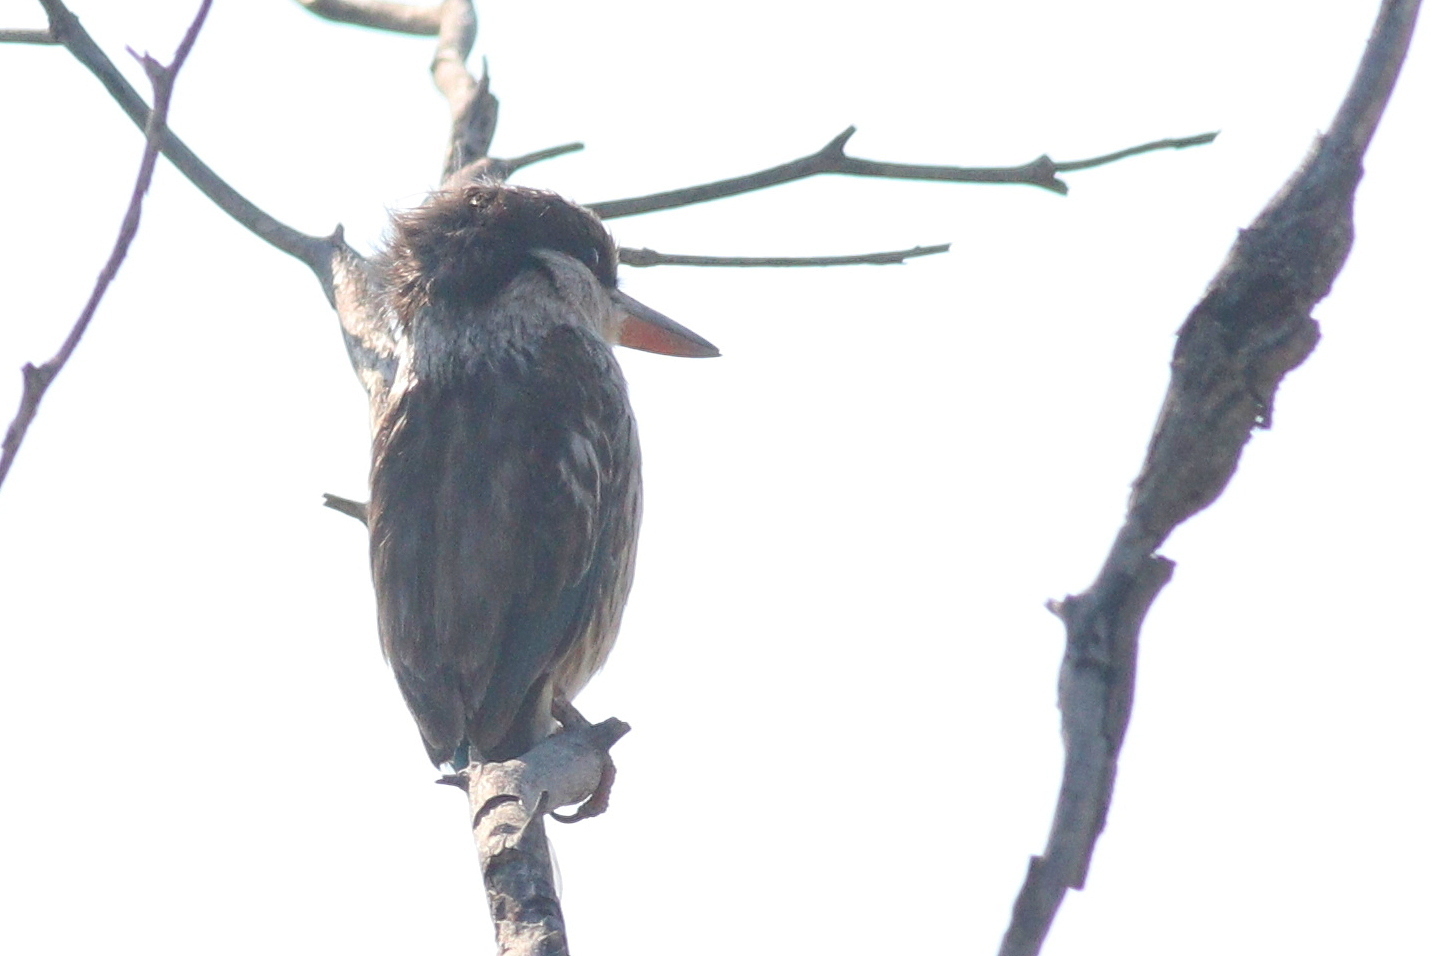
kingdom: Animalia
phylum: Chordata
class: Aves
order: Coraciiformes
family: Alcedinidae
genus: Halcyon
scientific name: Halcyon chelicuti
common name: Striped kingfisher
